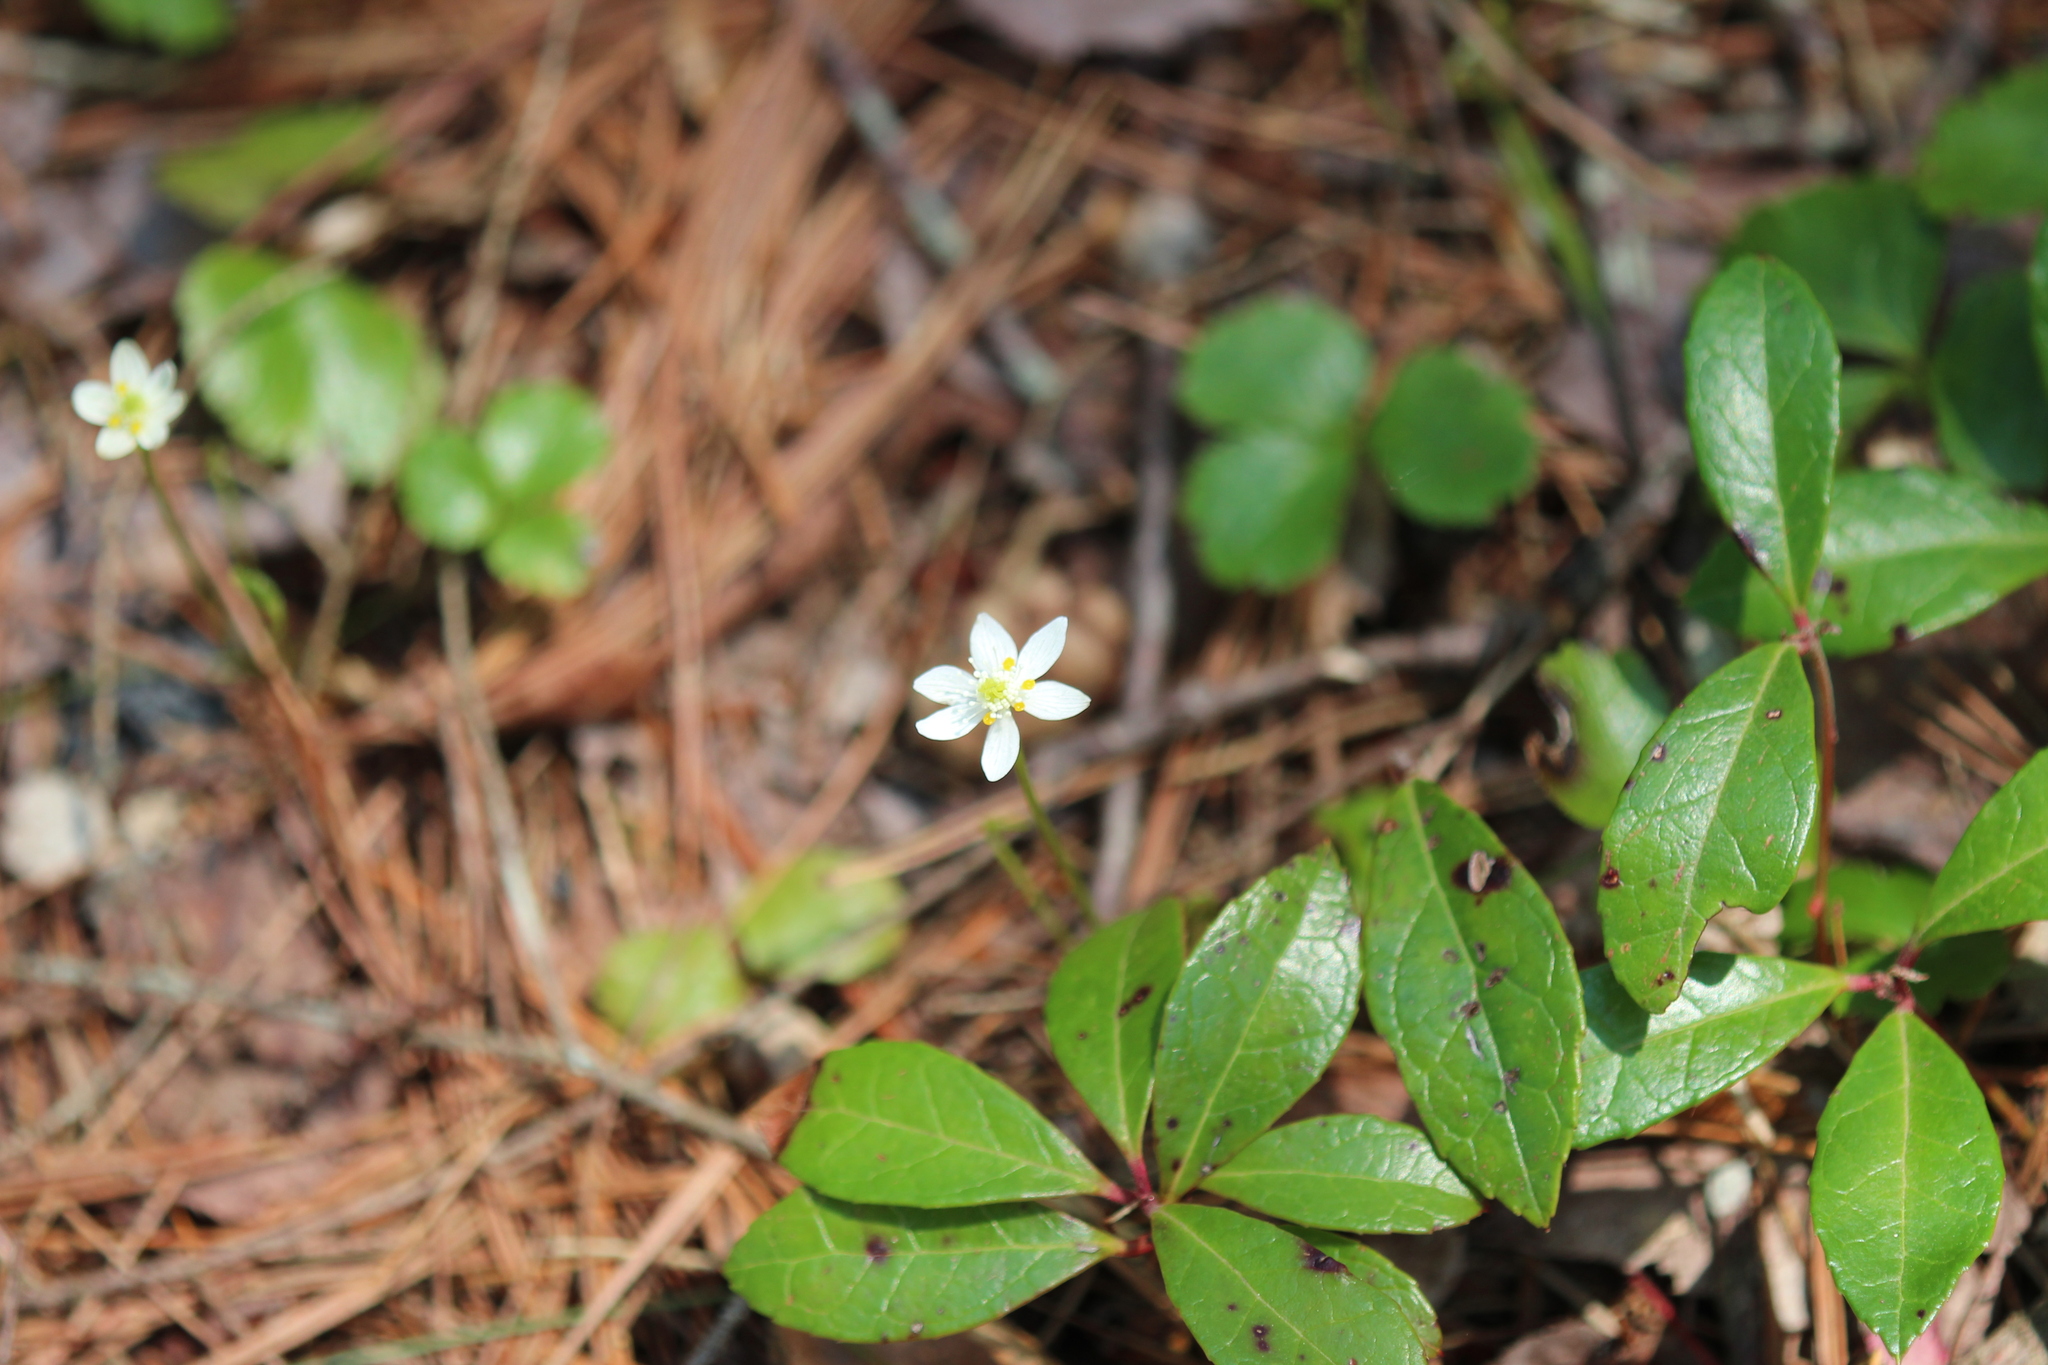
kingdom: Plantae
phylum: Tracheophyta
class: Magnoliopsida
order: Ranunculales
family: Ranunculaceae
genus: Coptis
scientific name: Coptis trifolia
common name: Canker-root
